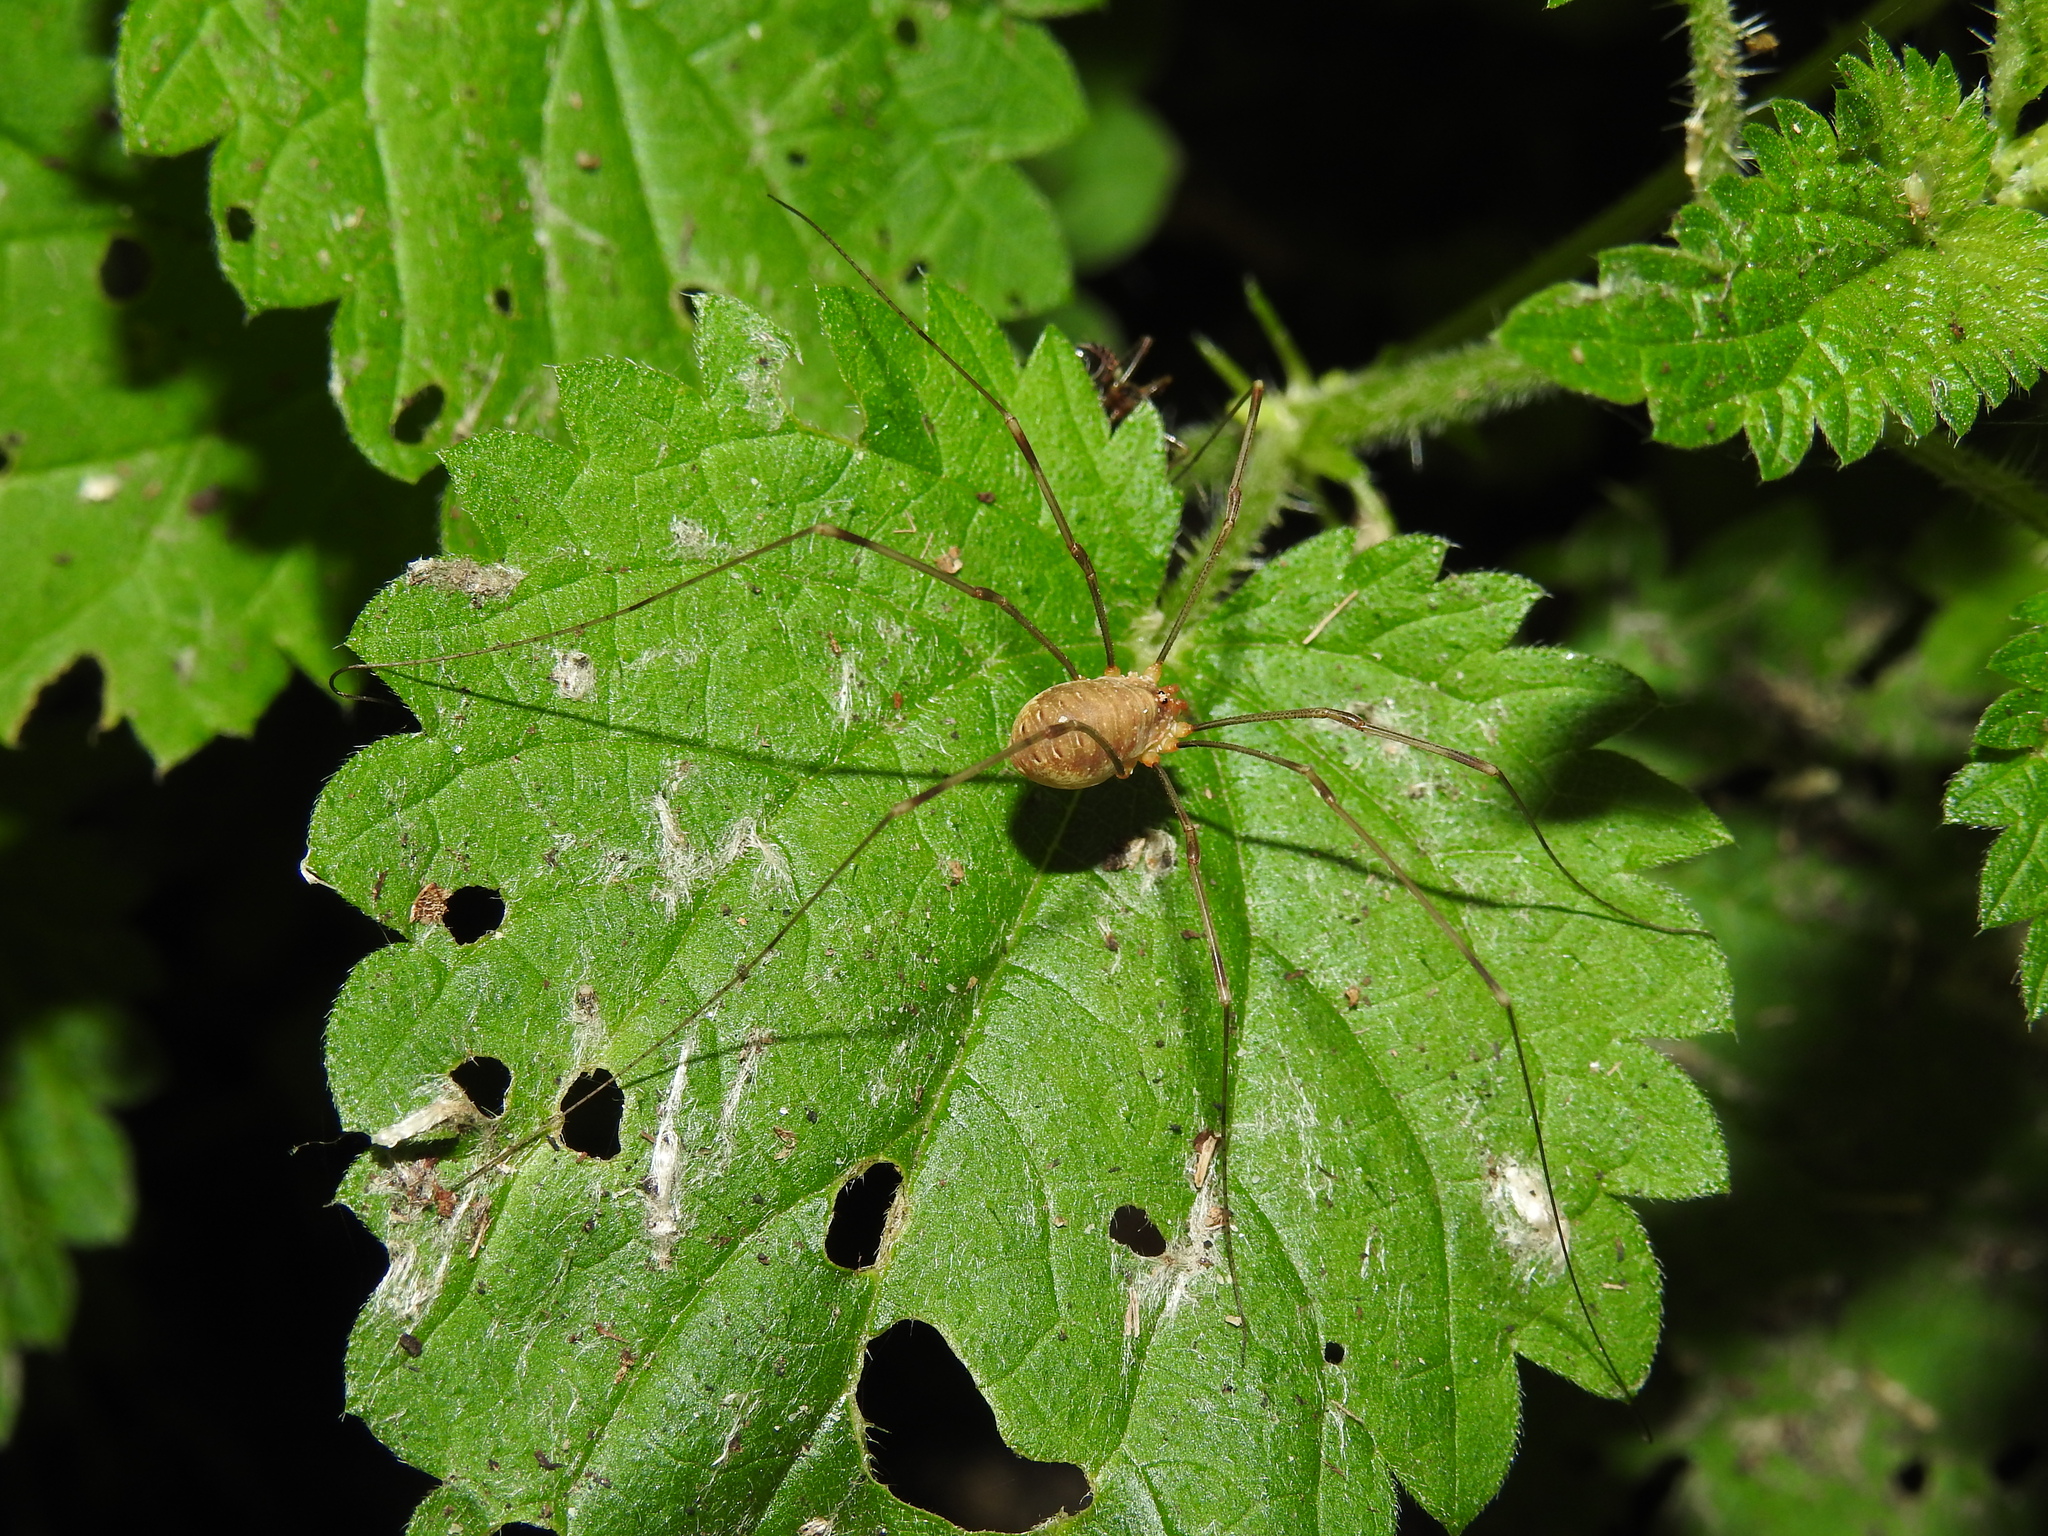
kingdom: Animalia
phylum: Arthropoda
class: Arachnida
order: Opiliones
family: Phalangiidae
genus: Opilio
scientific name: Opilio canestrinii
